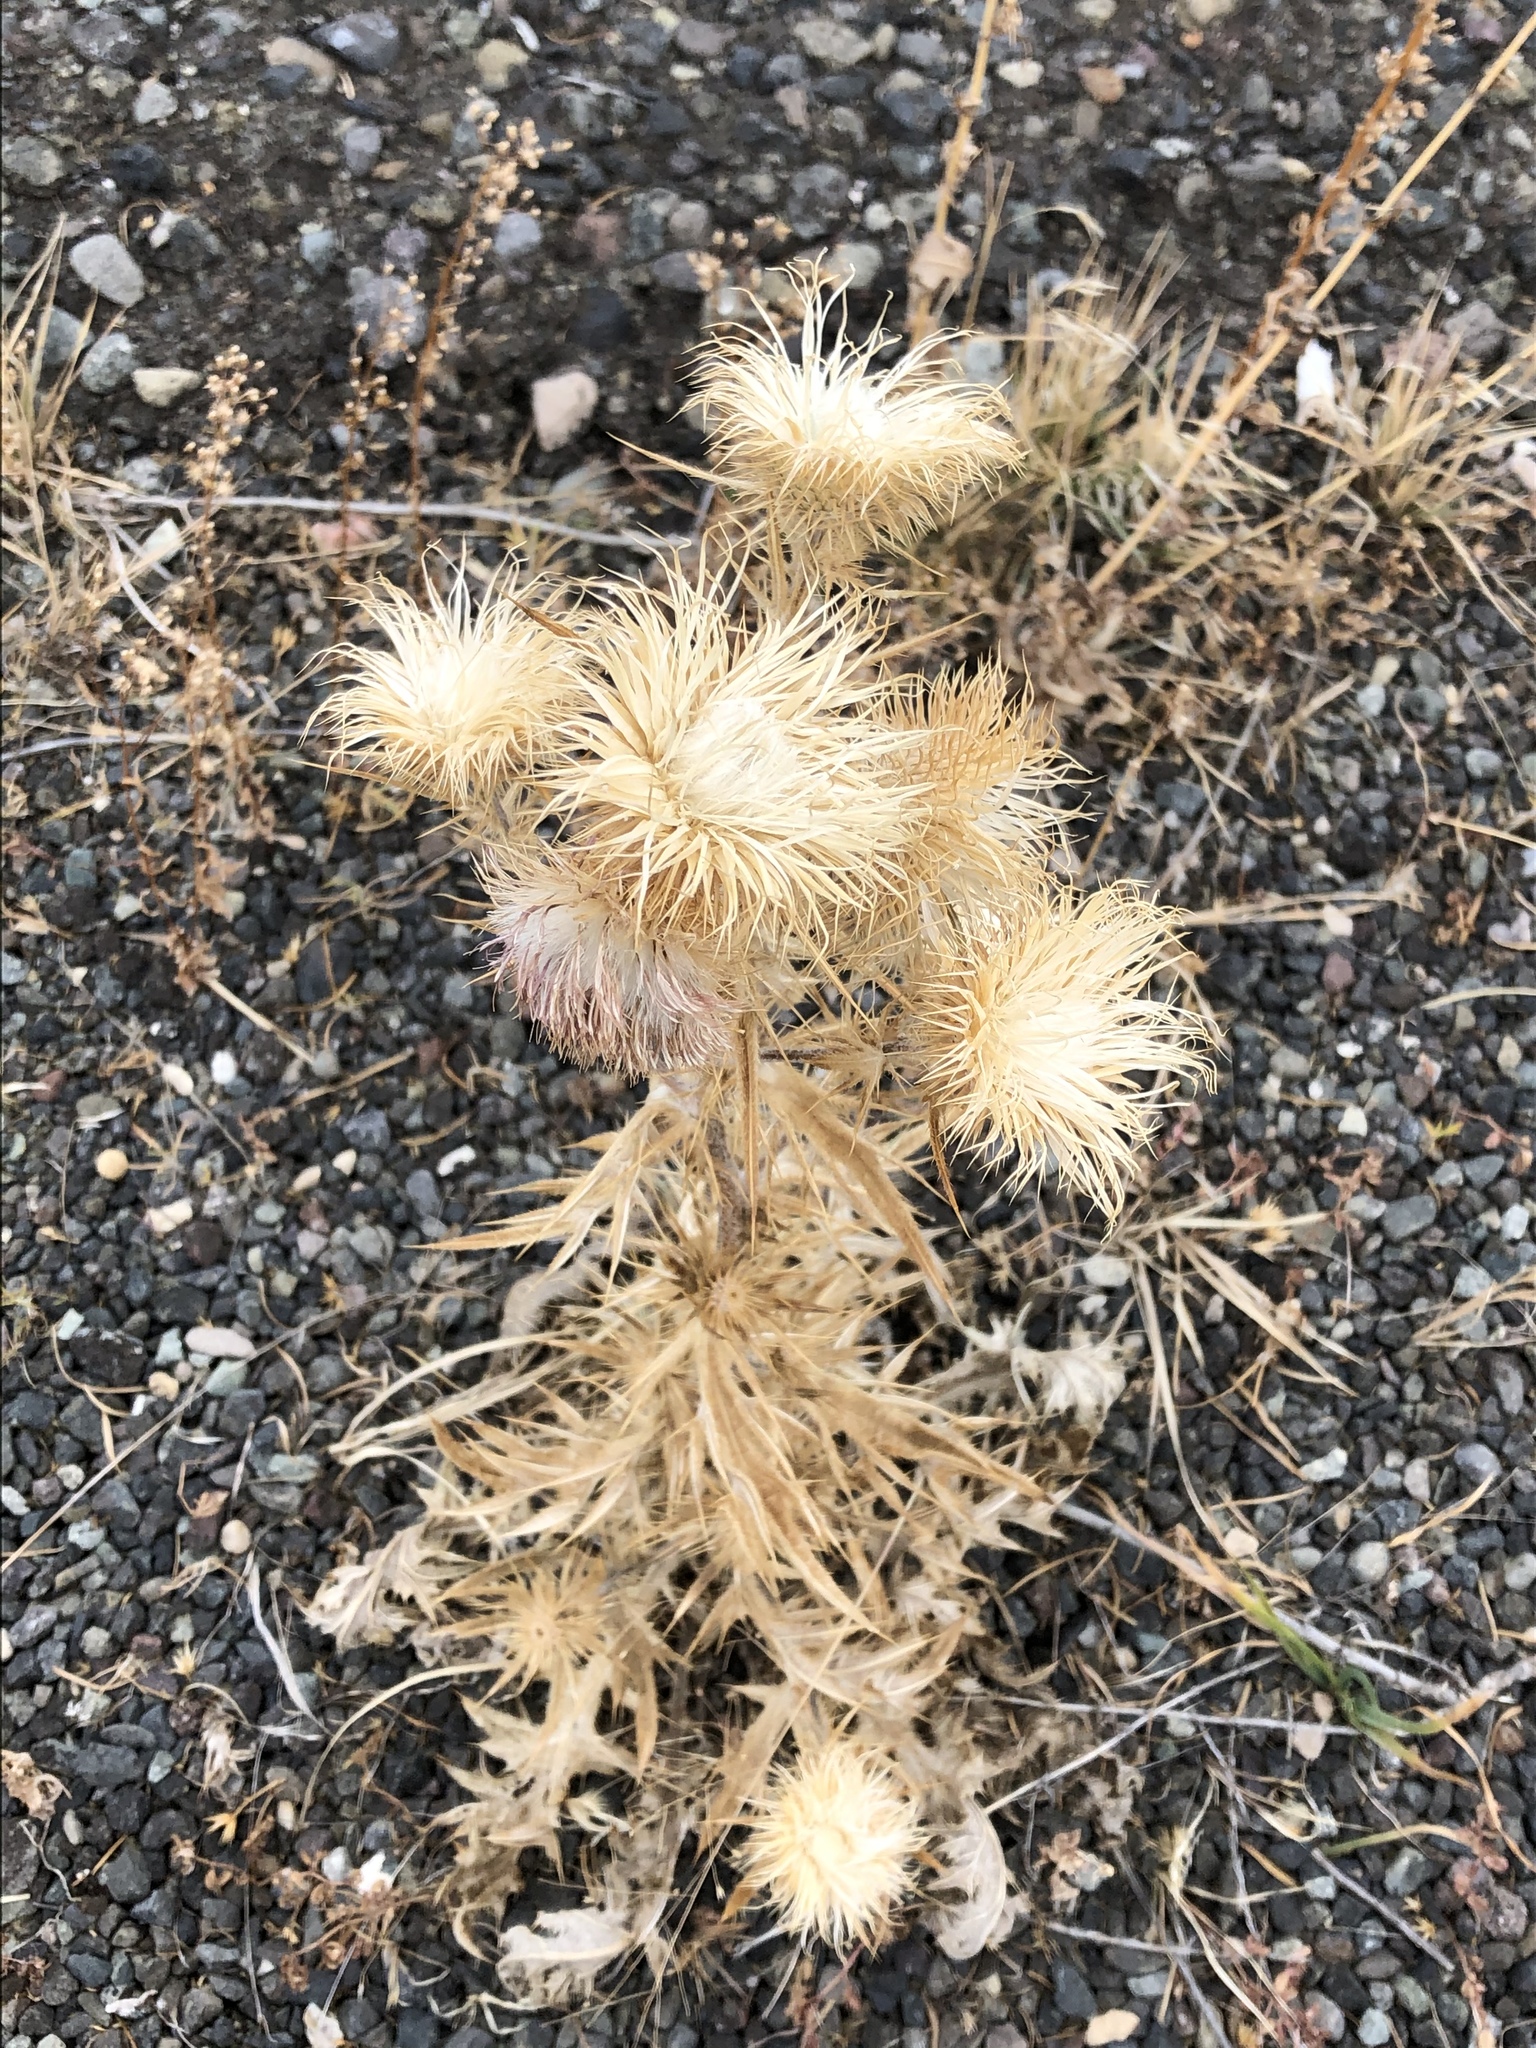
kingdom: Plantae
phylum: Tracheophyta
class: Magnoliopsida
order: Asterales
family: Asteraceae
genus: Cirsium
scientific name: Cirsium vulgare
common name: Bull thistle
